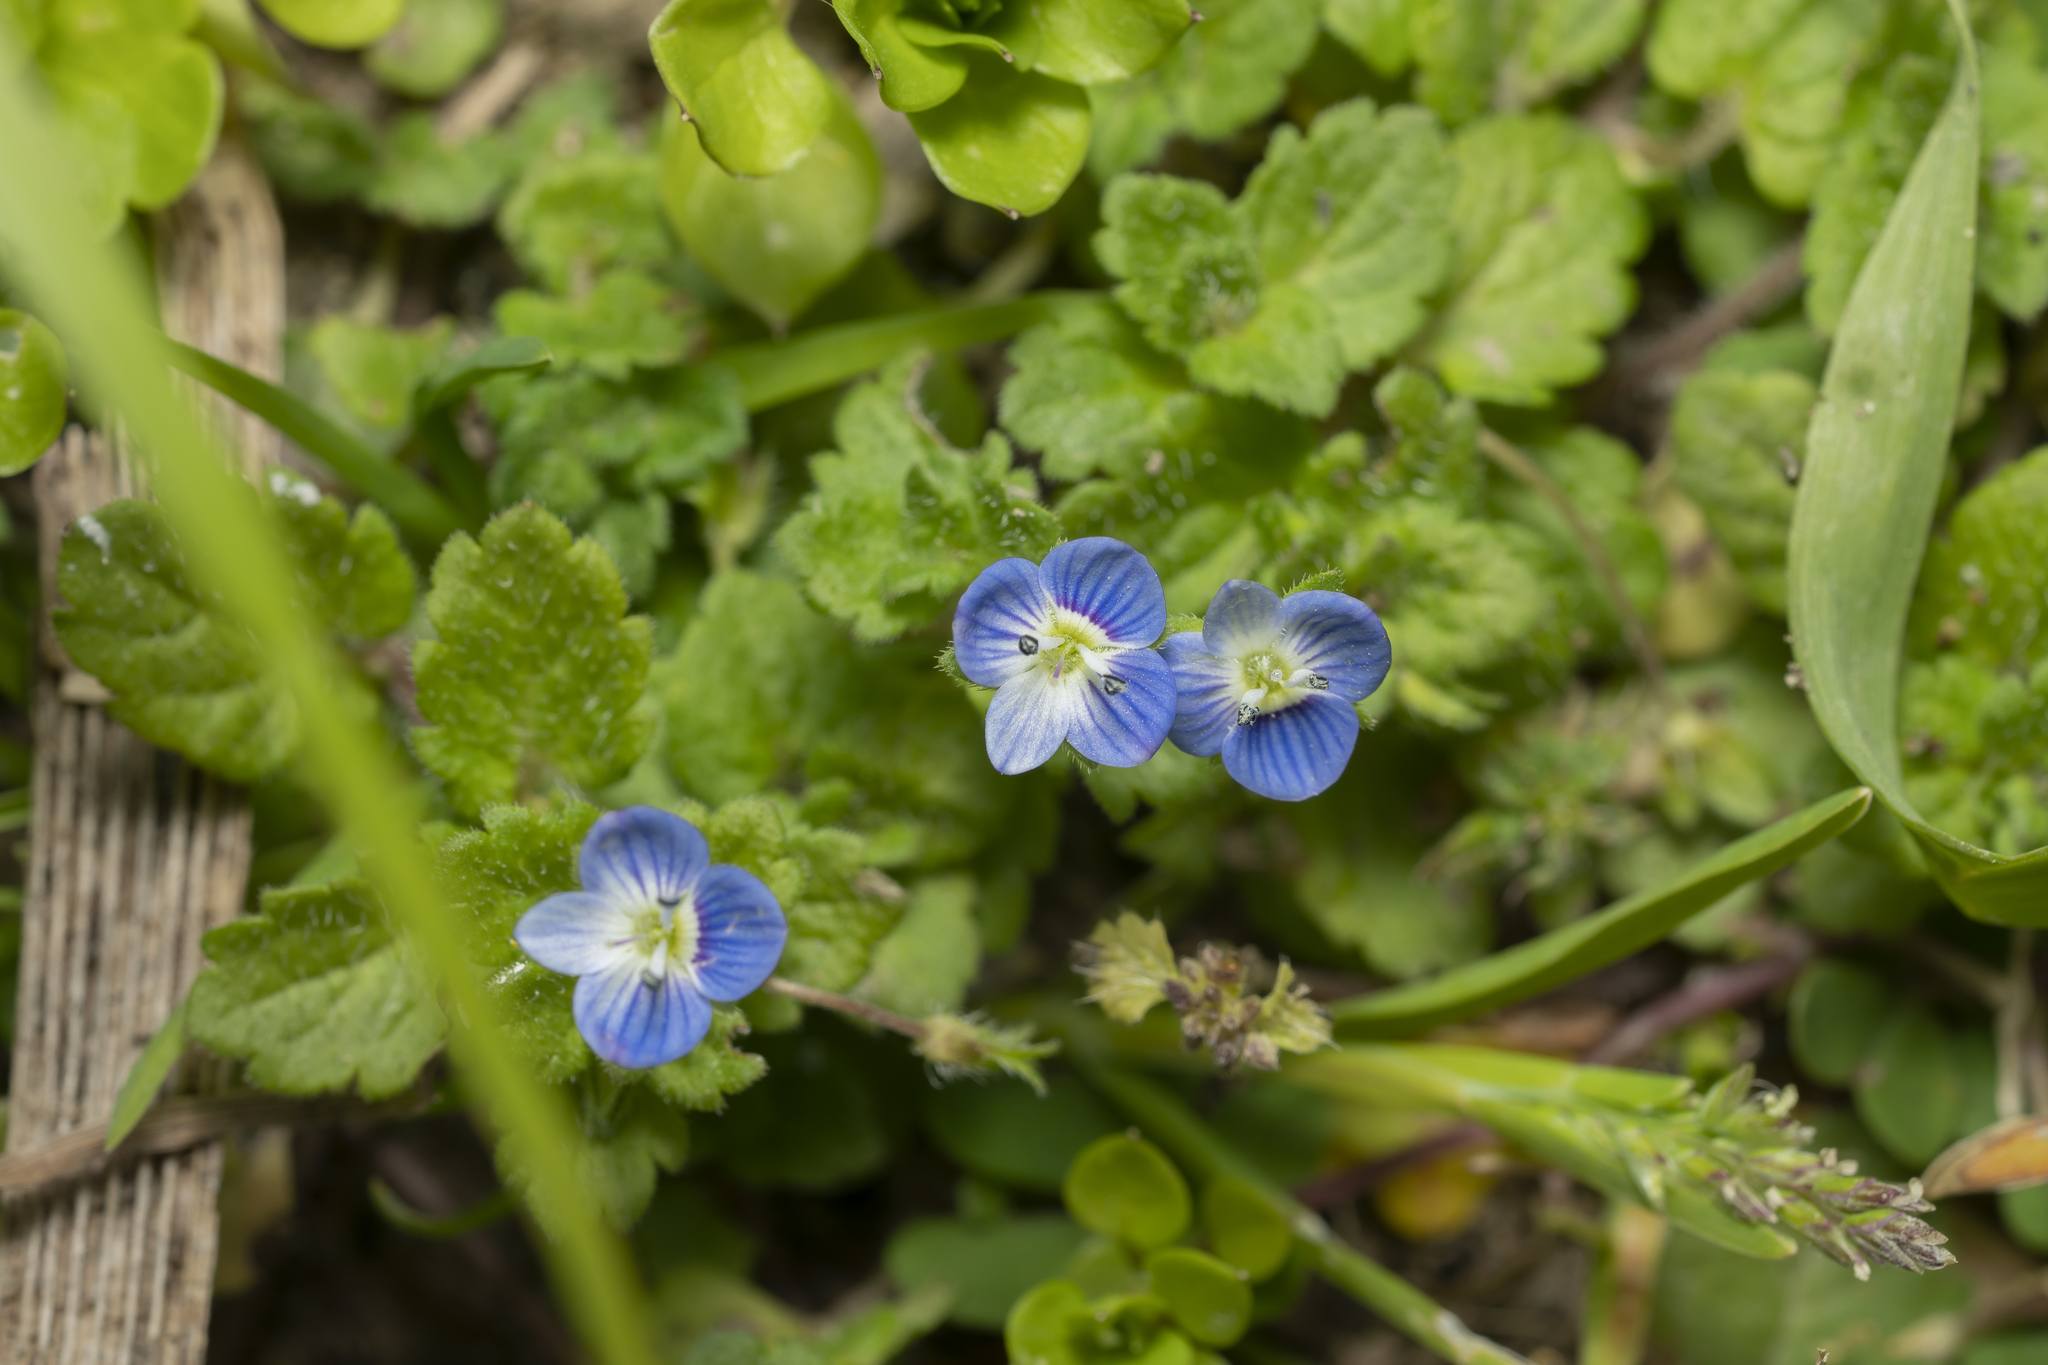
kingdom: Plantae
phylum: Tracheophyta
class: Magnoliopsida
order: Lamiales
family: Plantaginaceae
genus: Veronica
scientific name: Veronica persica
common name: Common field-speedwell
